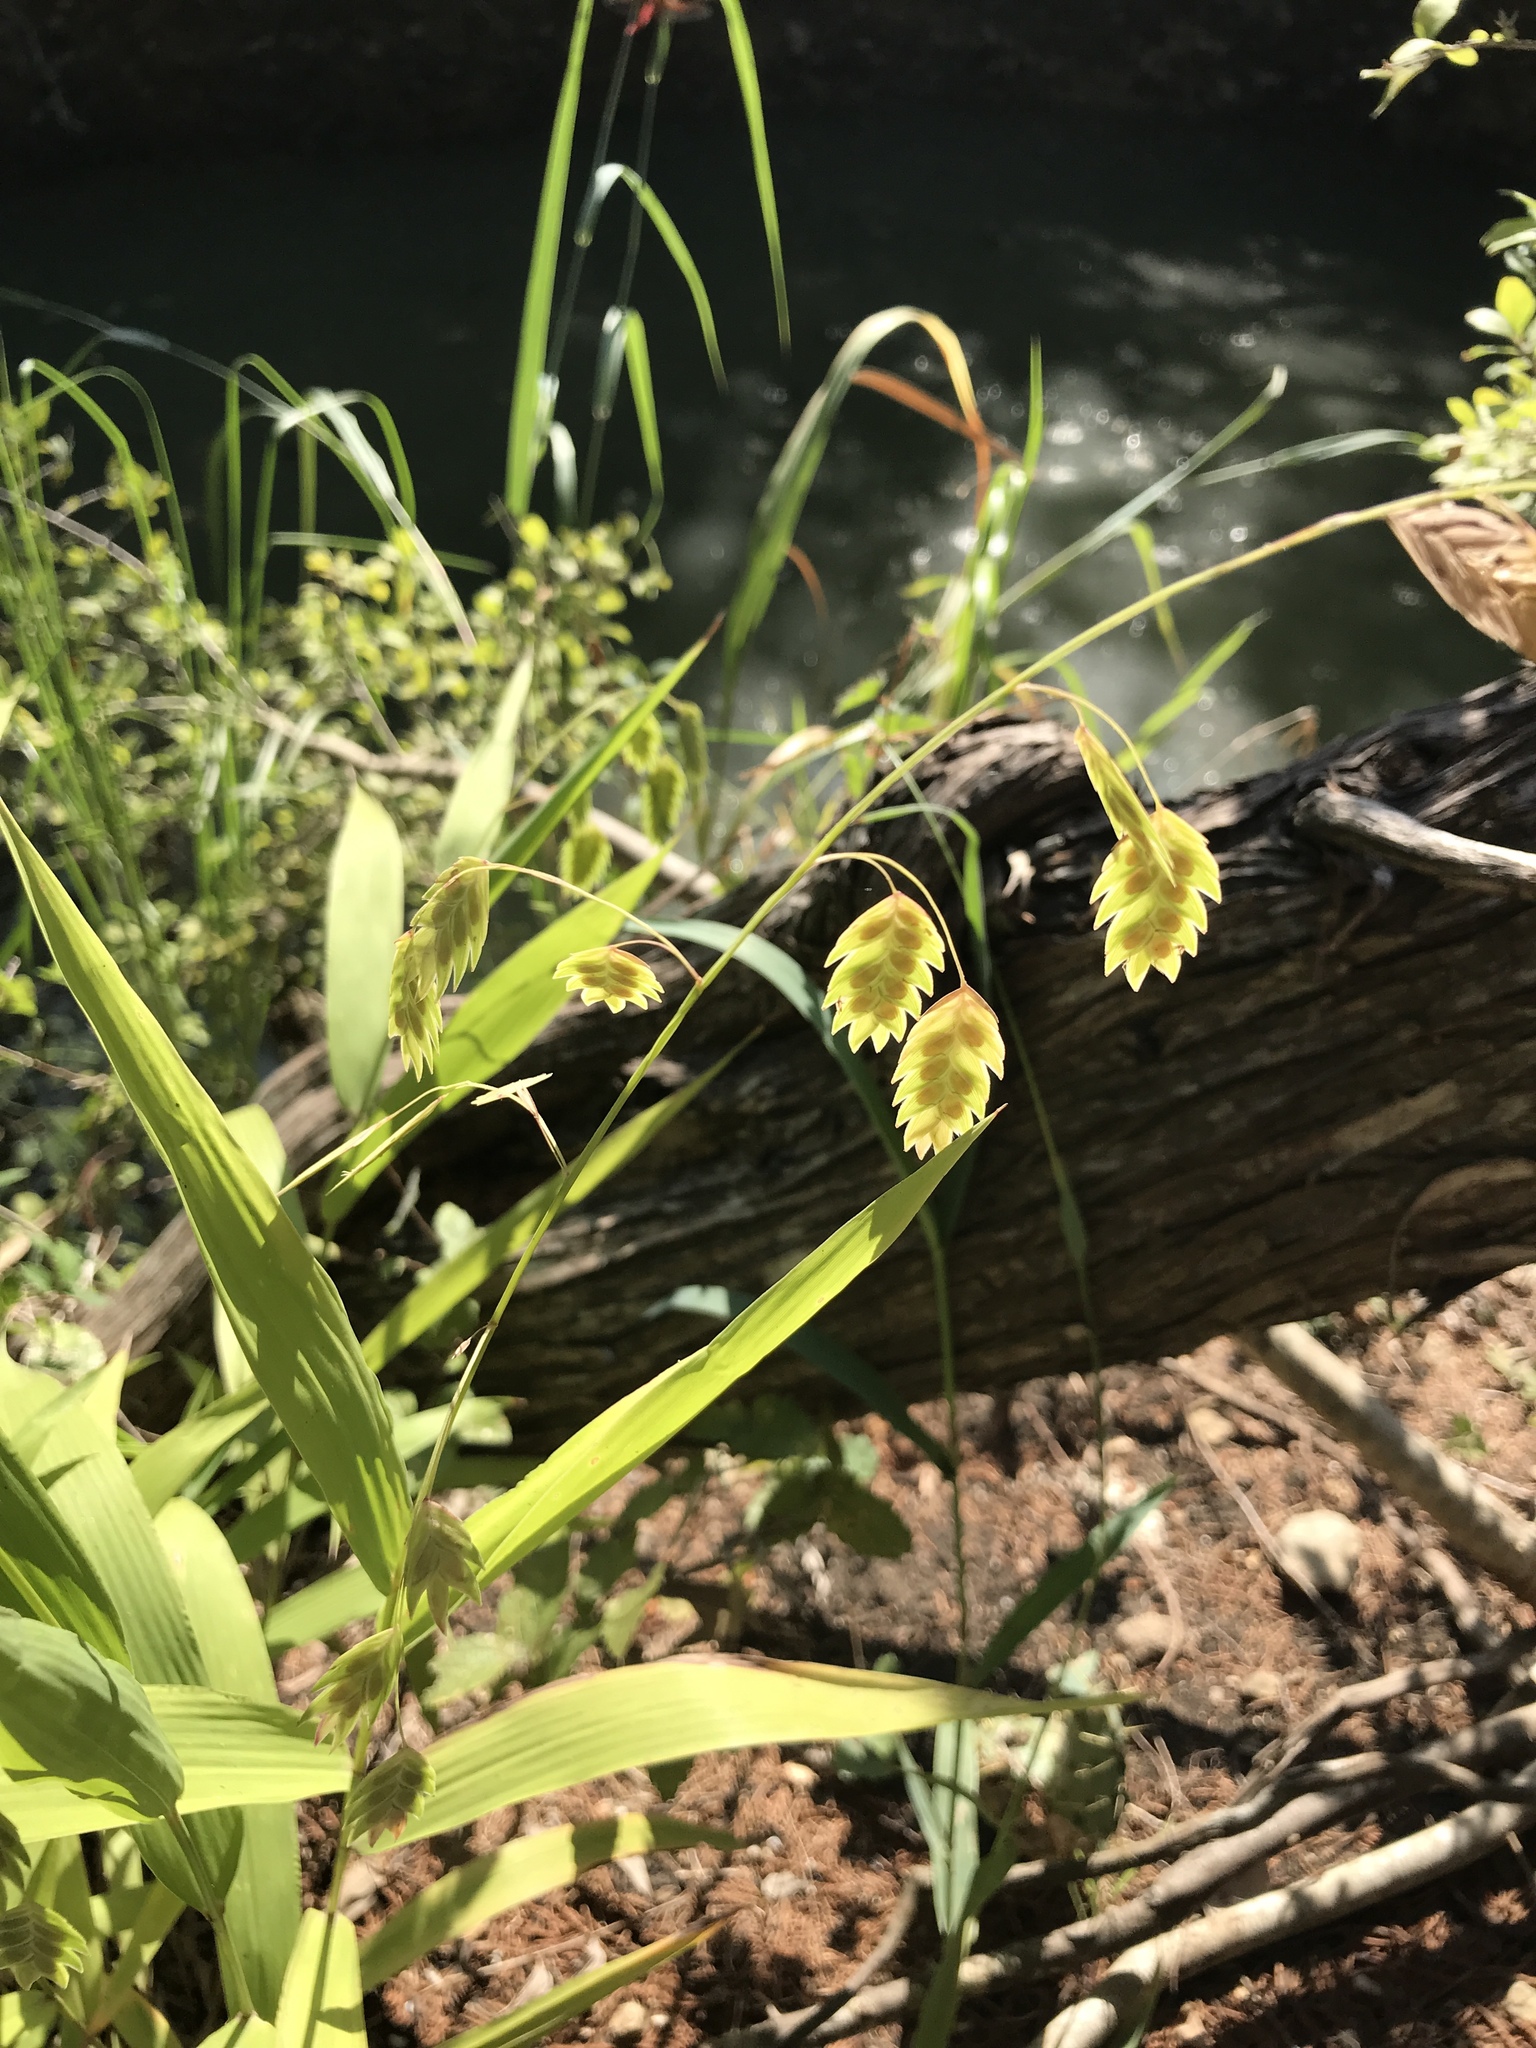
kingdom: Plantae
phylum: Tracheophyta
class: Liliopsida
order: Poales
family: Poaceae
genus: Chasmanthium
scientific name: Chasmanthium latifolium
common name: Broad-leaved chasmanthium
